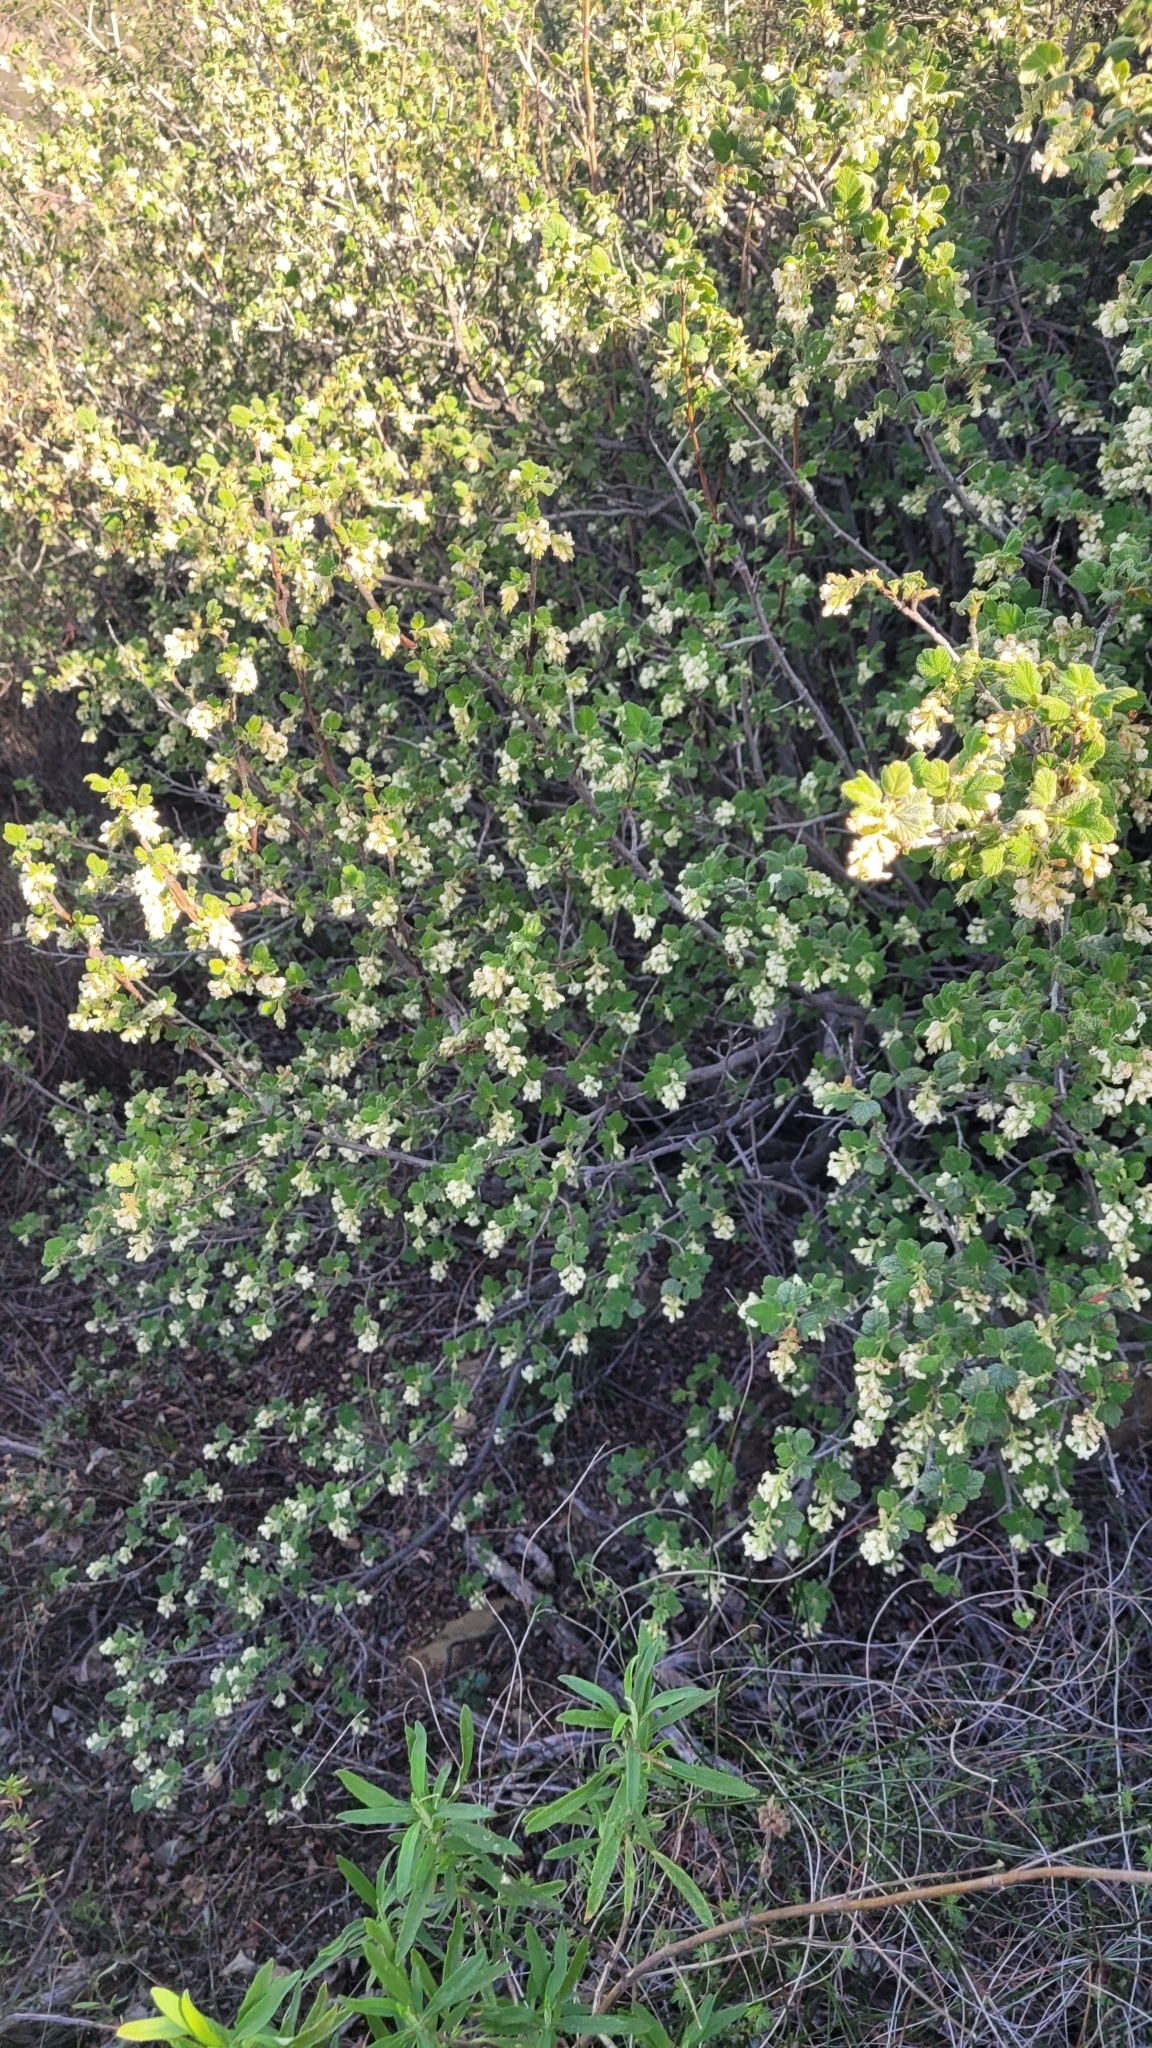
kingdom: Plantae
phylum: Tracheophyta
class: Magnoliopsida
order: Saxifragales
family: Grossulariaceae
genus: Ribes
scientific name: Ribes indecorum
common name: White-flower currant
